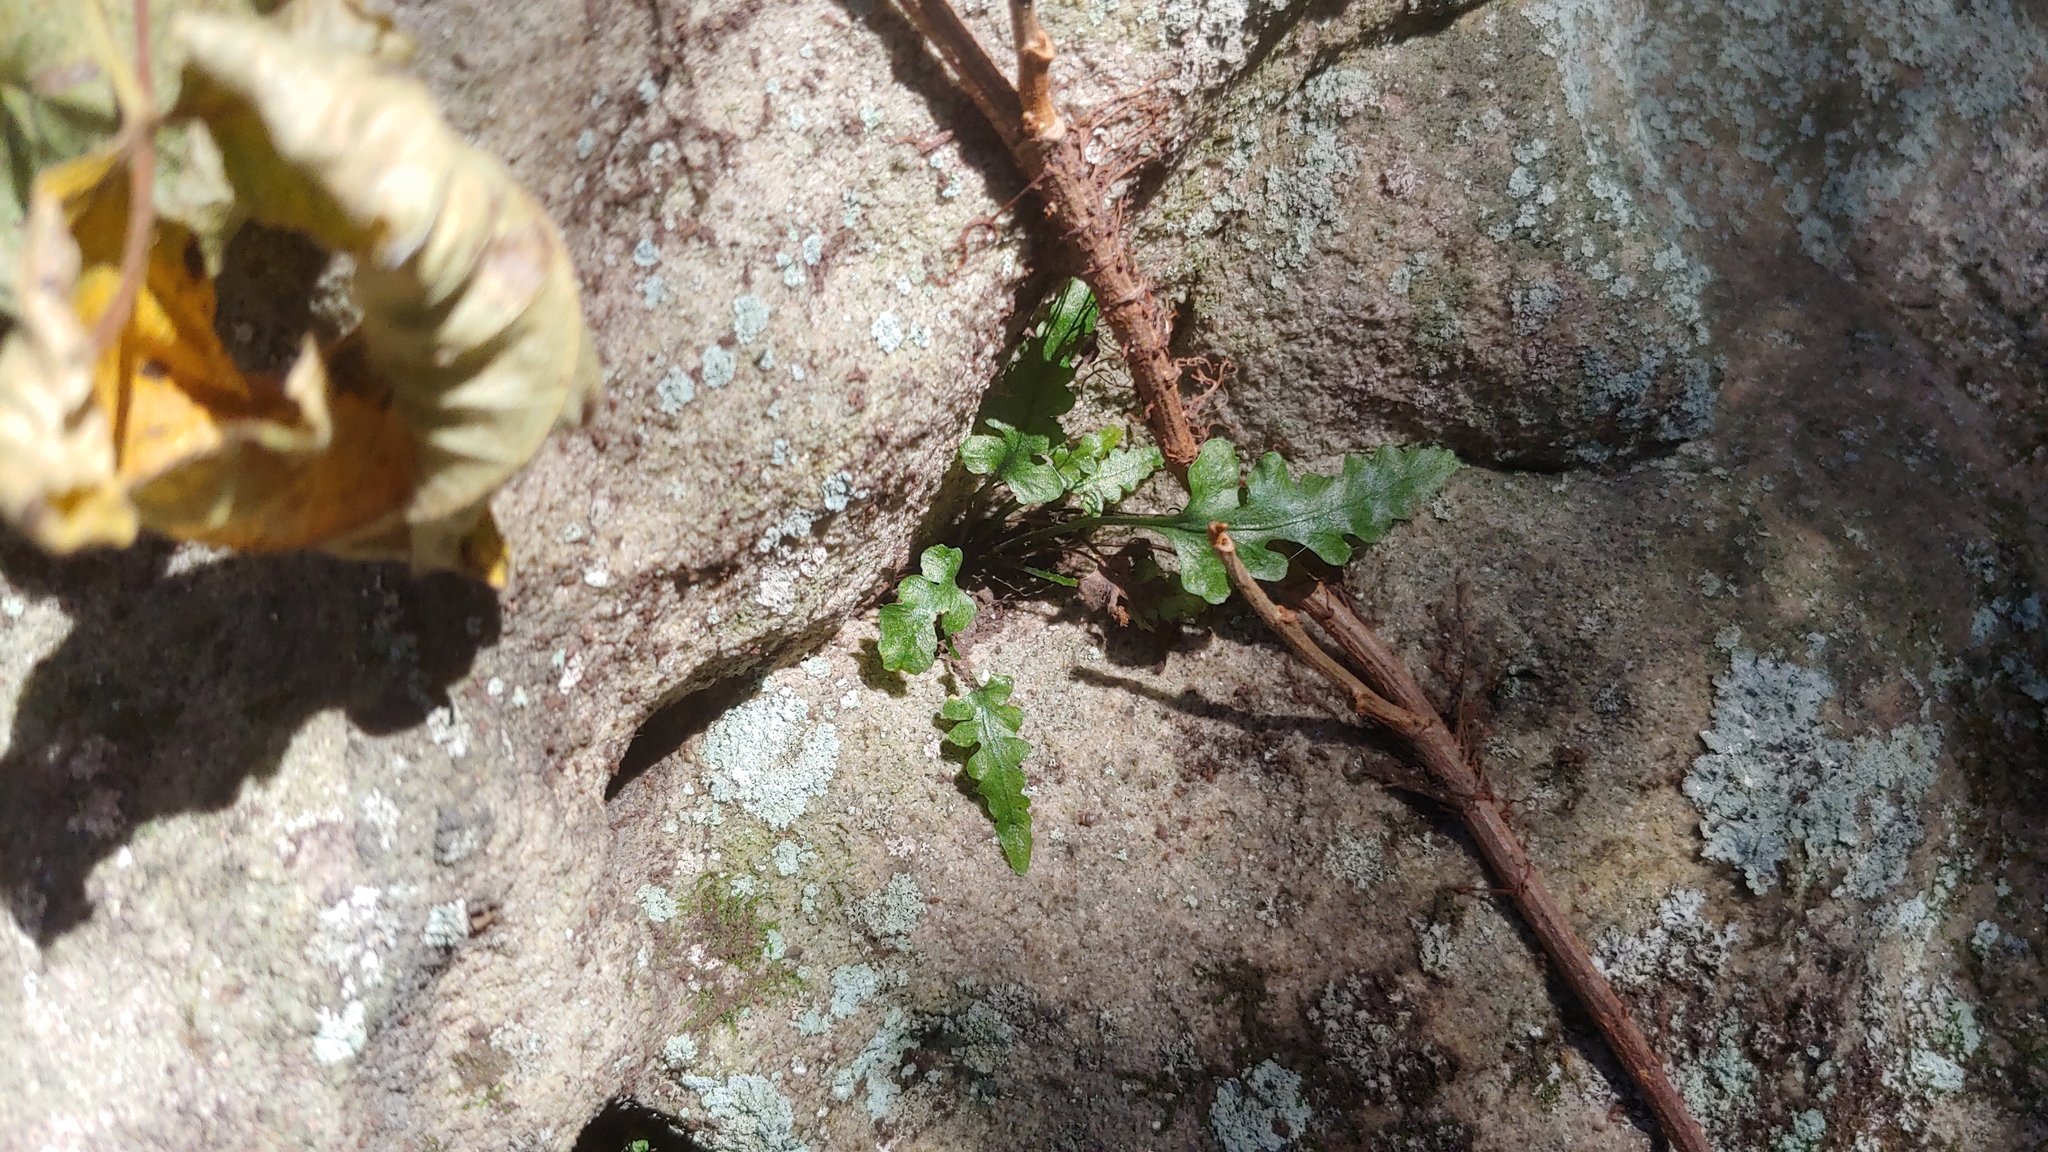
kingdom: Plantae
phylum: Tracheophyta
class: Polypodiopsida
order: Polypodiales
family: Aspleniaceae
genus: Asplenium
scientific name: Asplenium pinnatifidum
